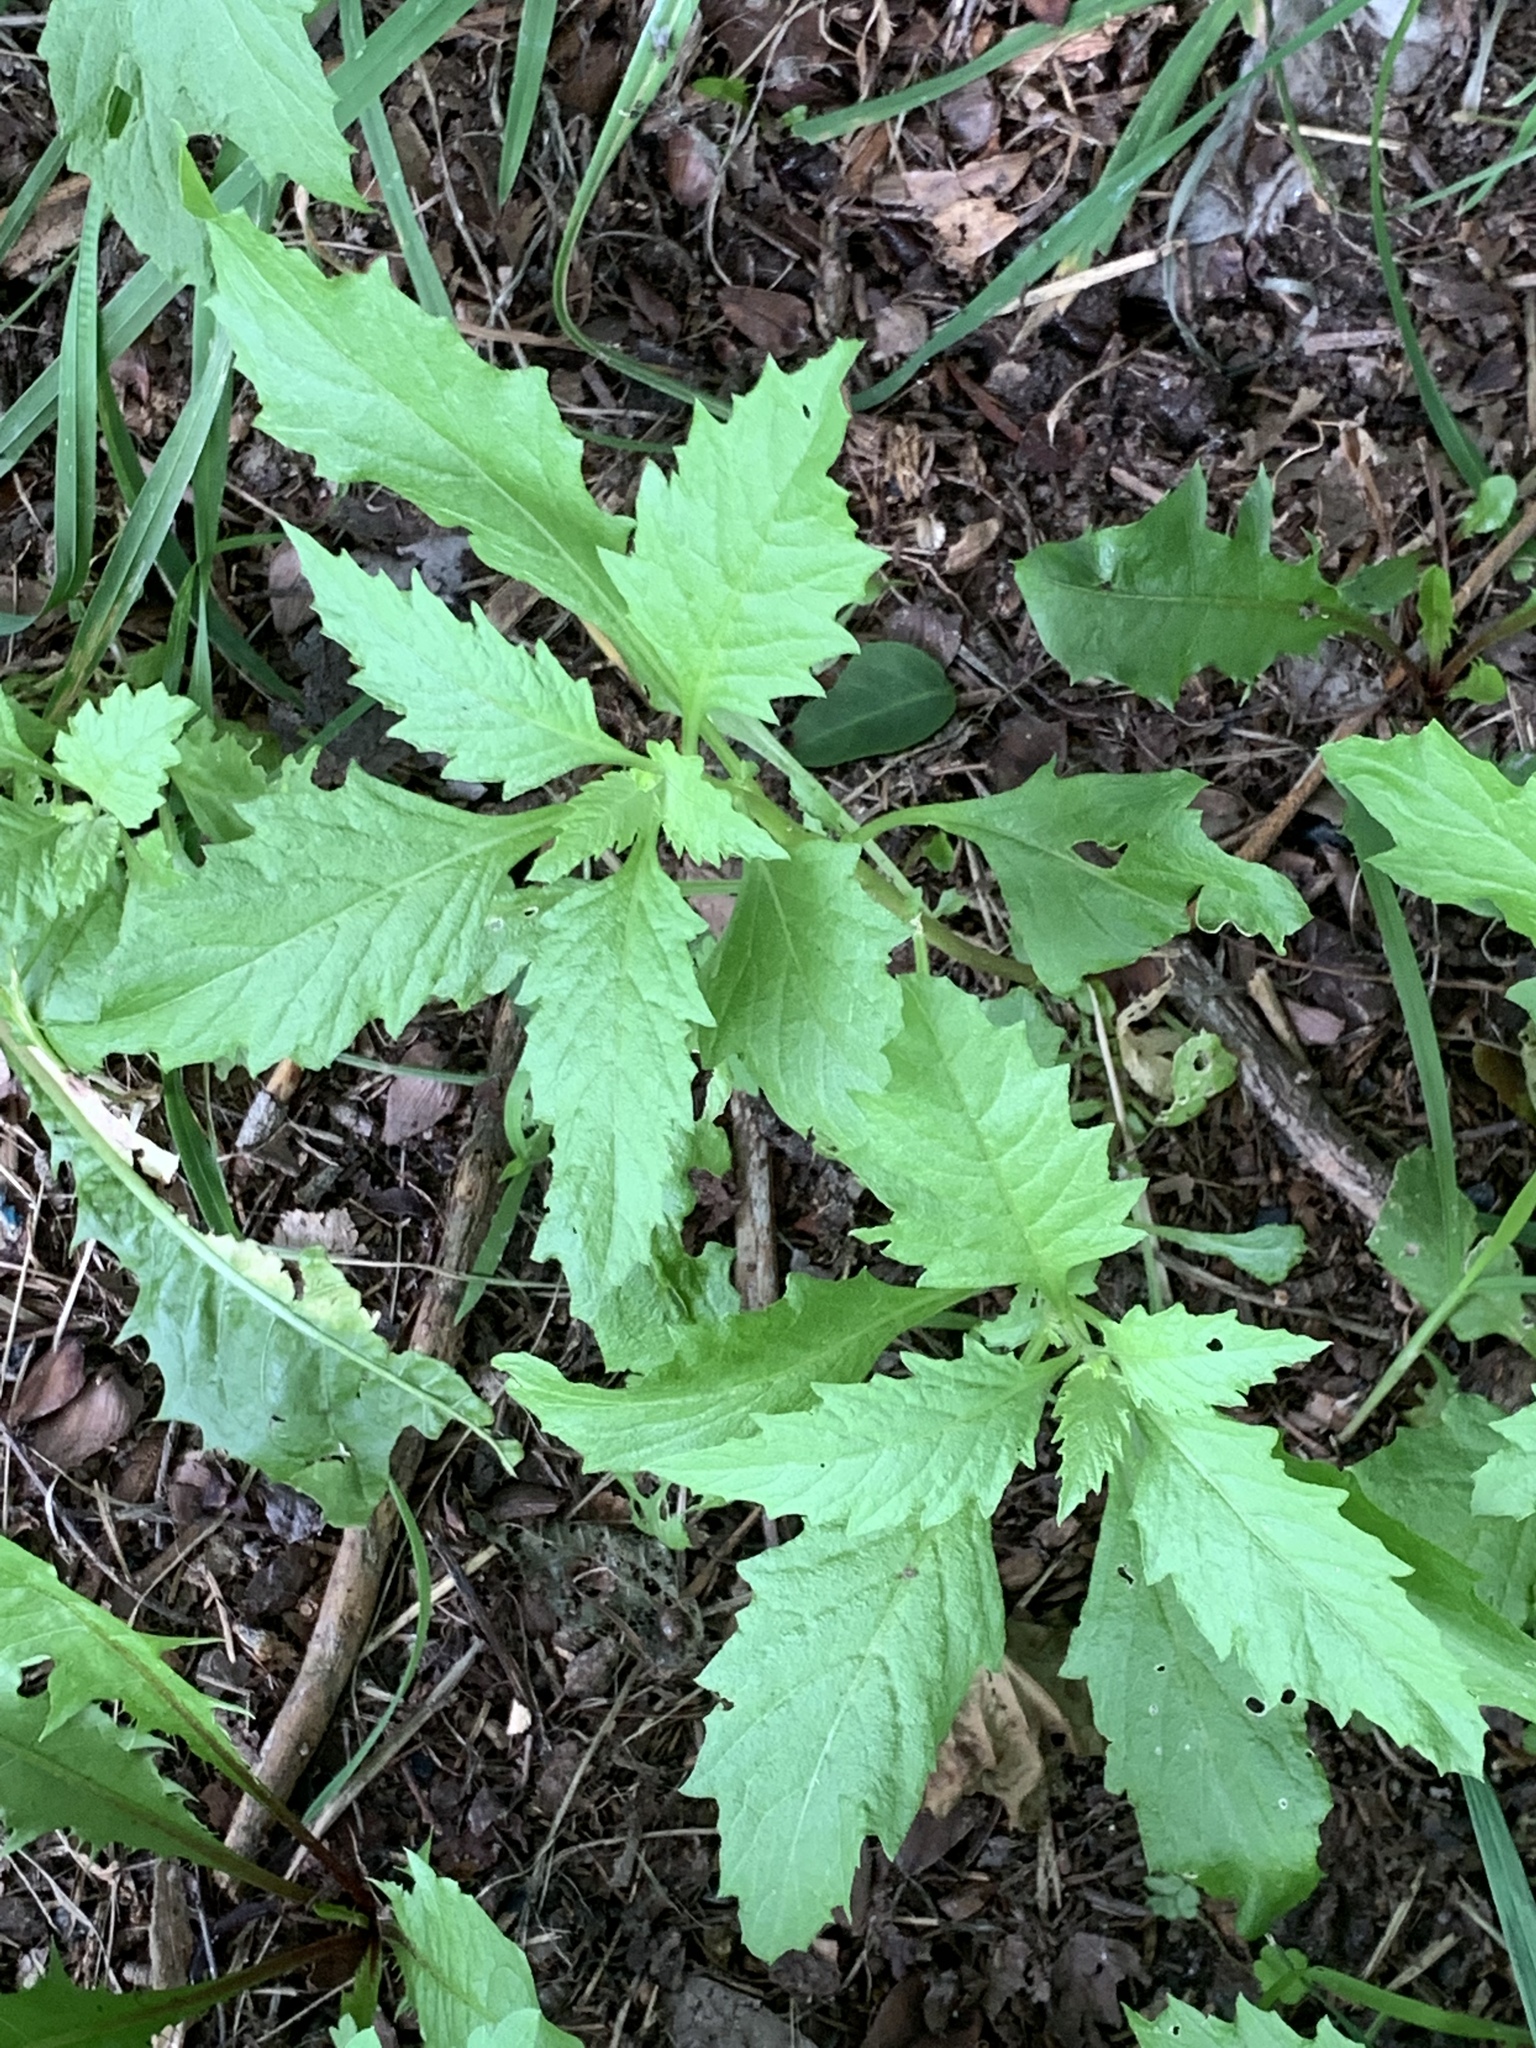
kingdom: Plantae
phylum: Tracheophyta
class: Magnoliopsida
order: Caryophyllales
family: Amaranthaceae
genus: Dysphania
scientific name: Dysphania ambrosioides
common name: Wormseed
